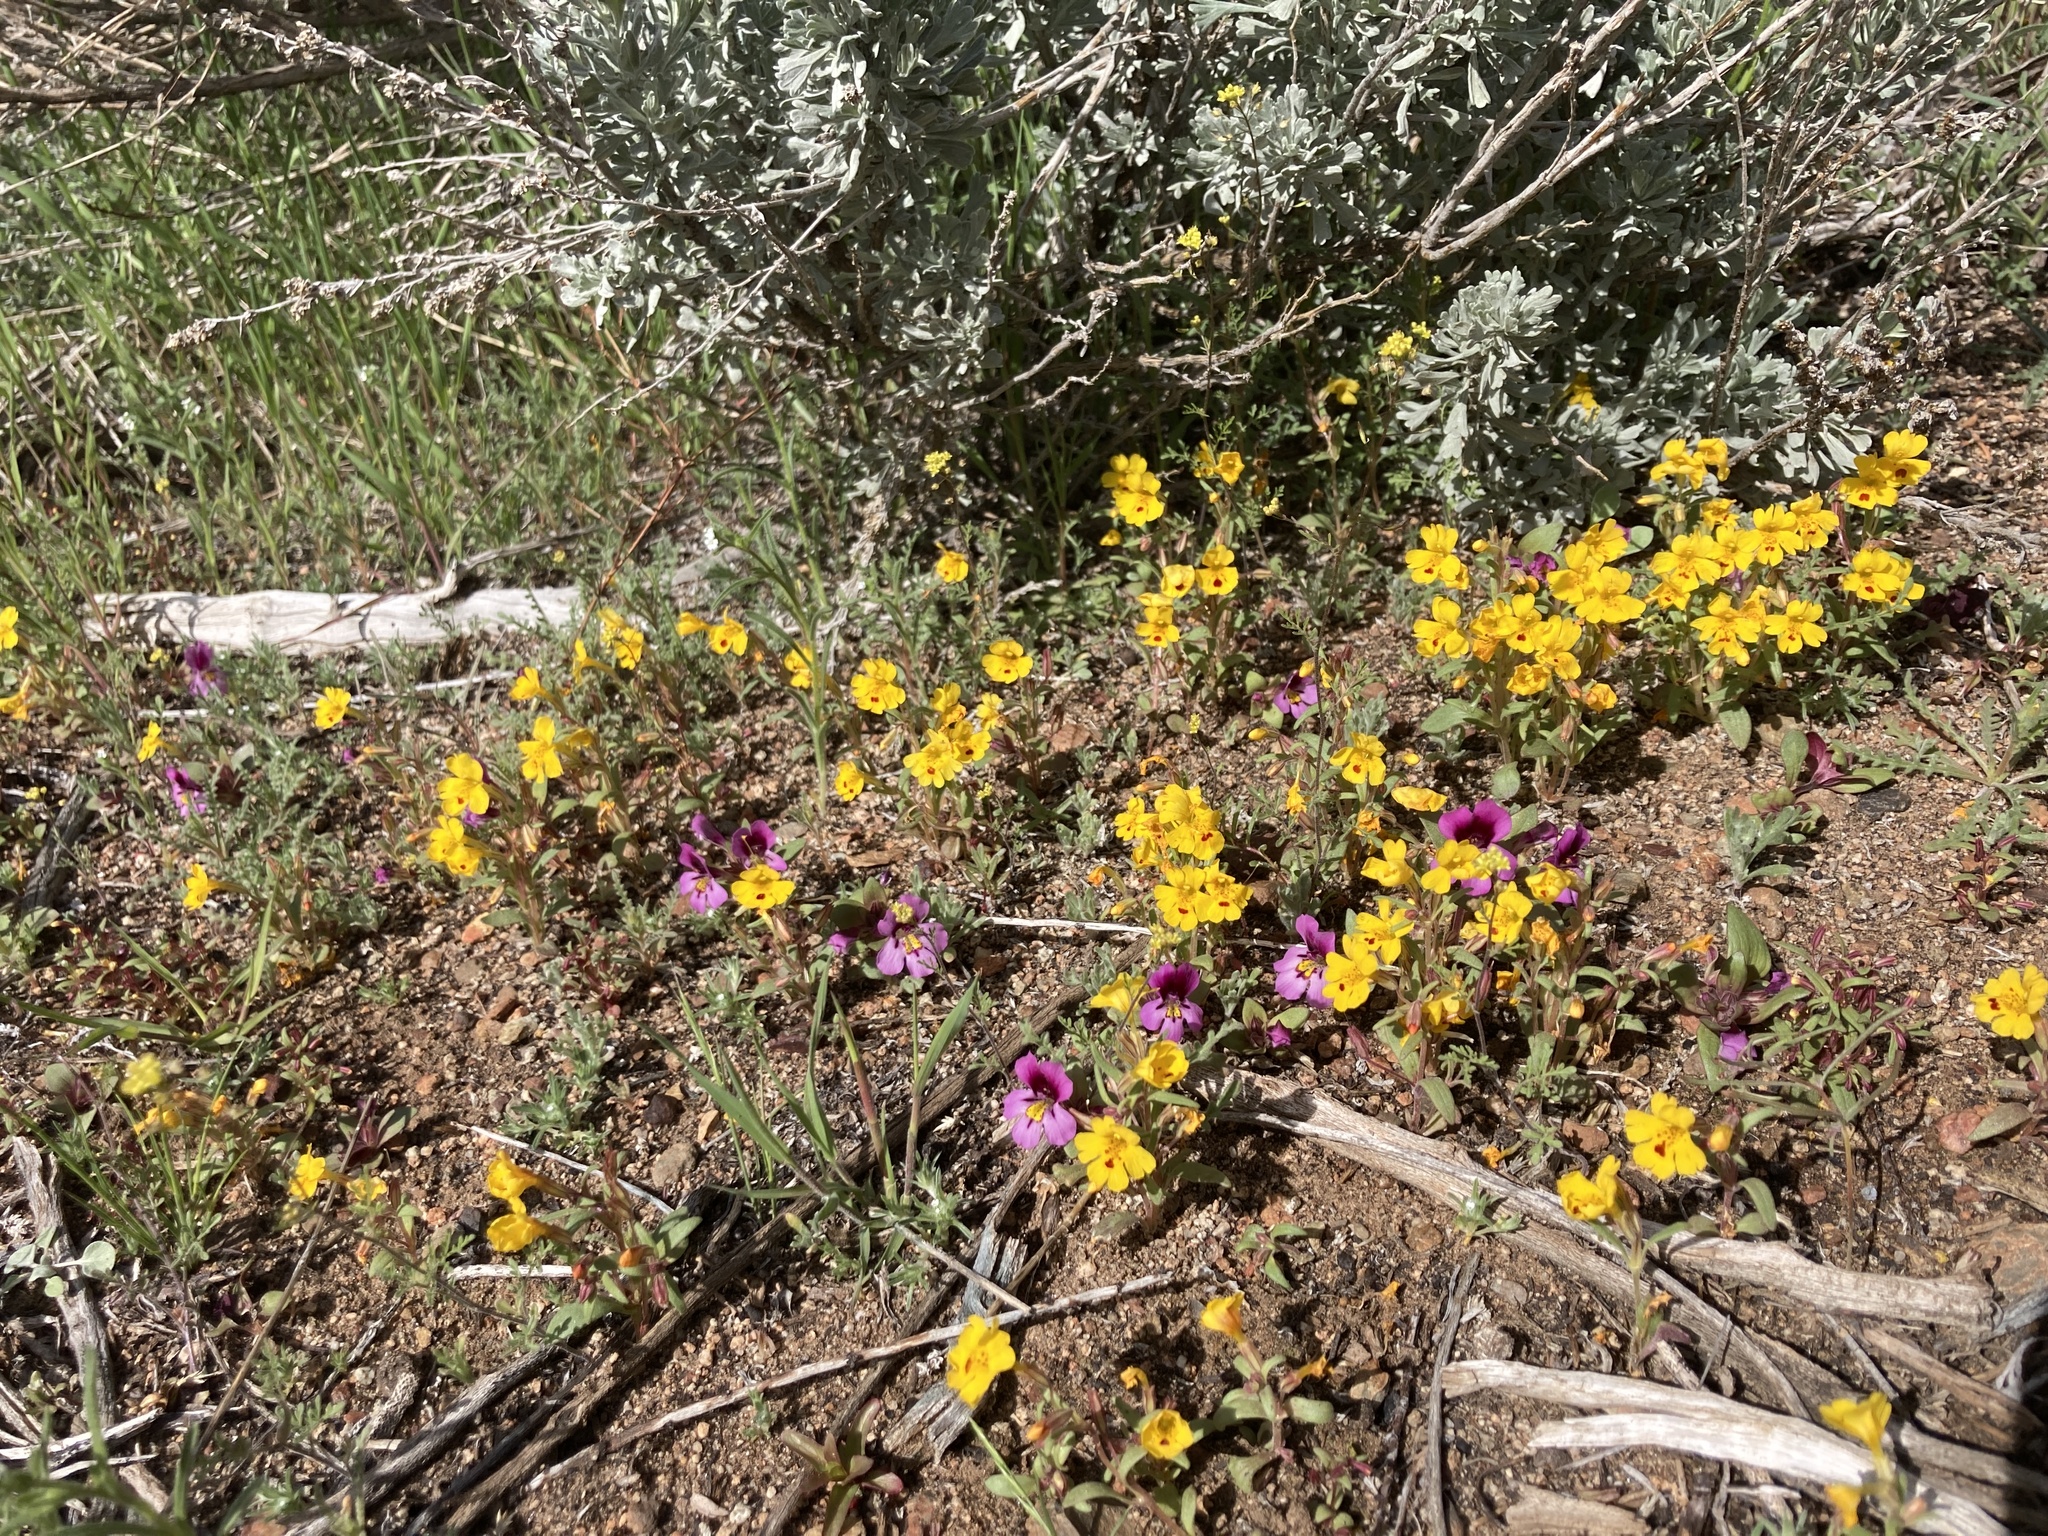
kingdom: Plantae
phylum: Tracheophyta
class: Magnoliopsida
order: Lamiales
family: Phrymaceae
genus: Erythranthe
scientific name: Erythranthe carsonensis
